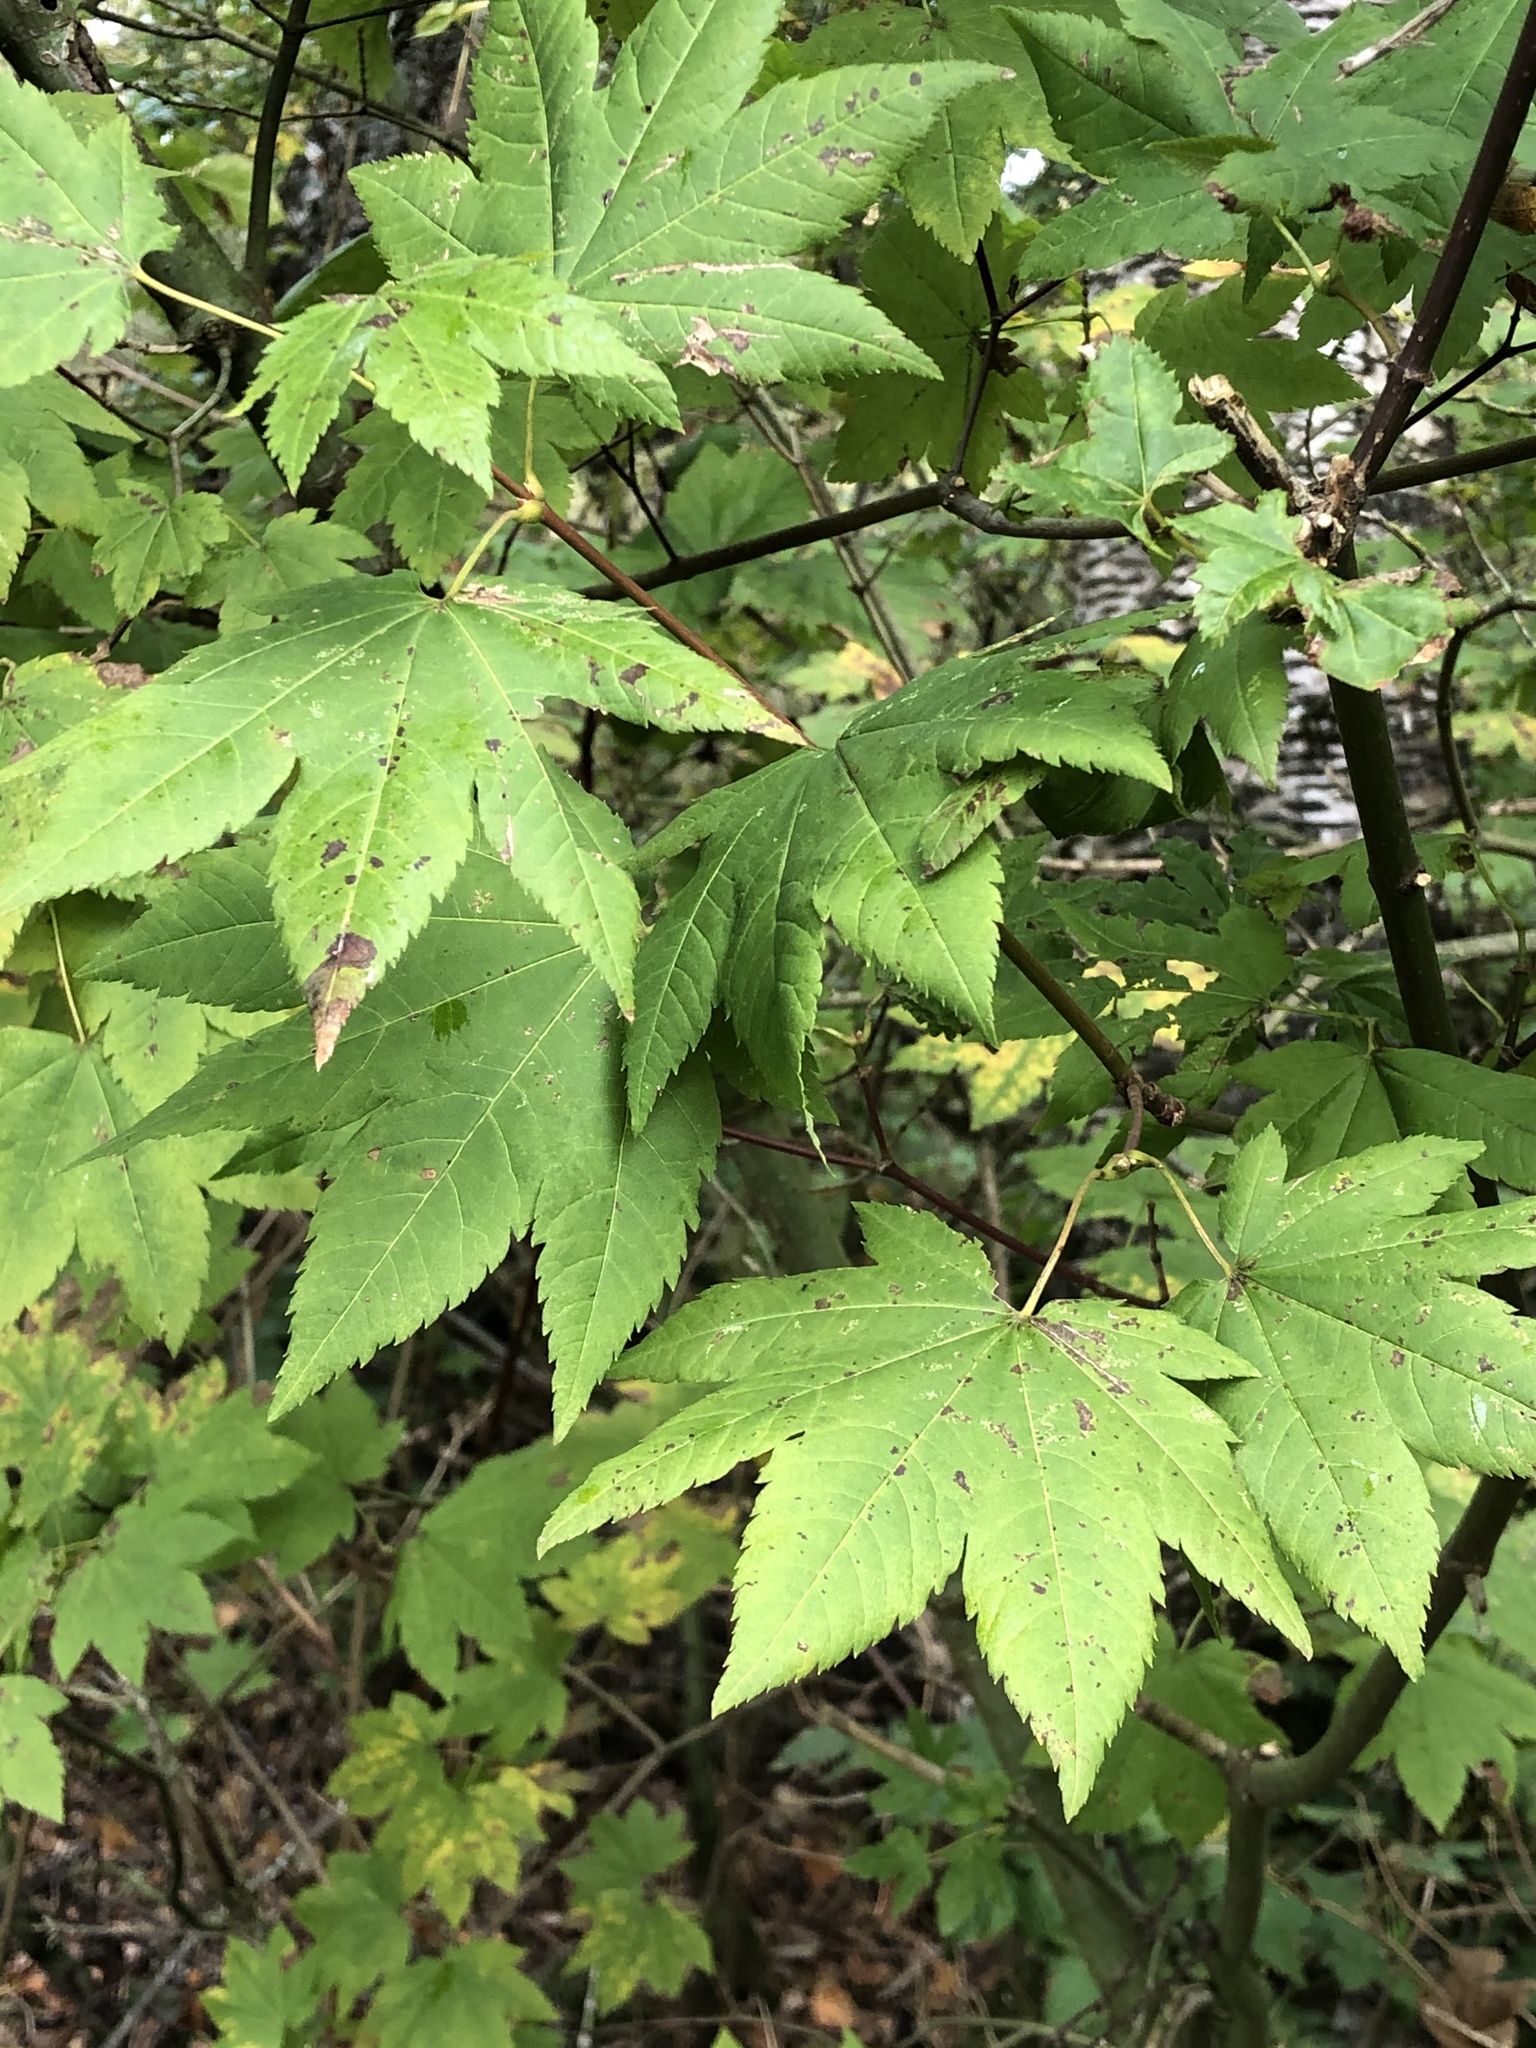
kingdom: Plantae
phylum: Tracheophyta
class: Magnoliopsida
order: Sapindales
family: Sapindaceae
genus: Acer
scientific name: Acer circinatum
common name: Vine maple
